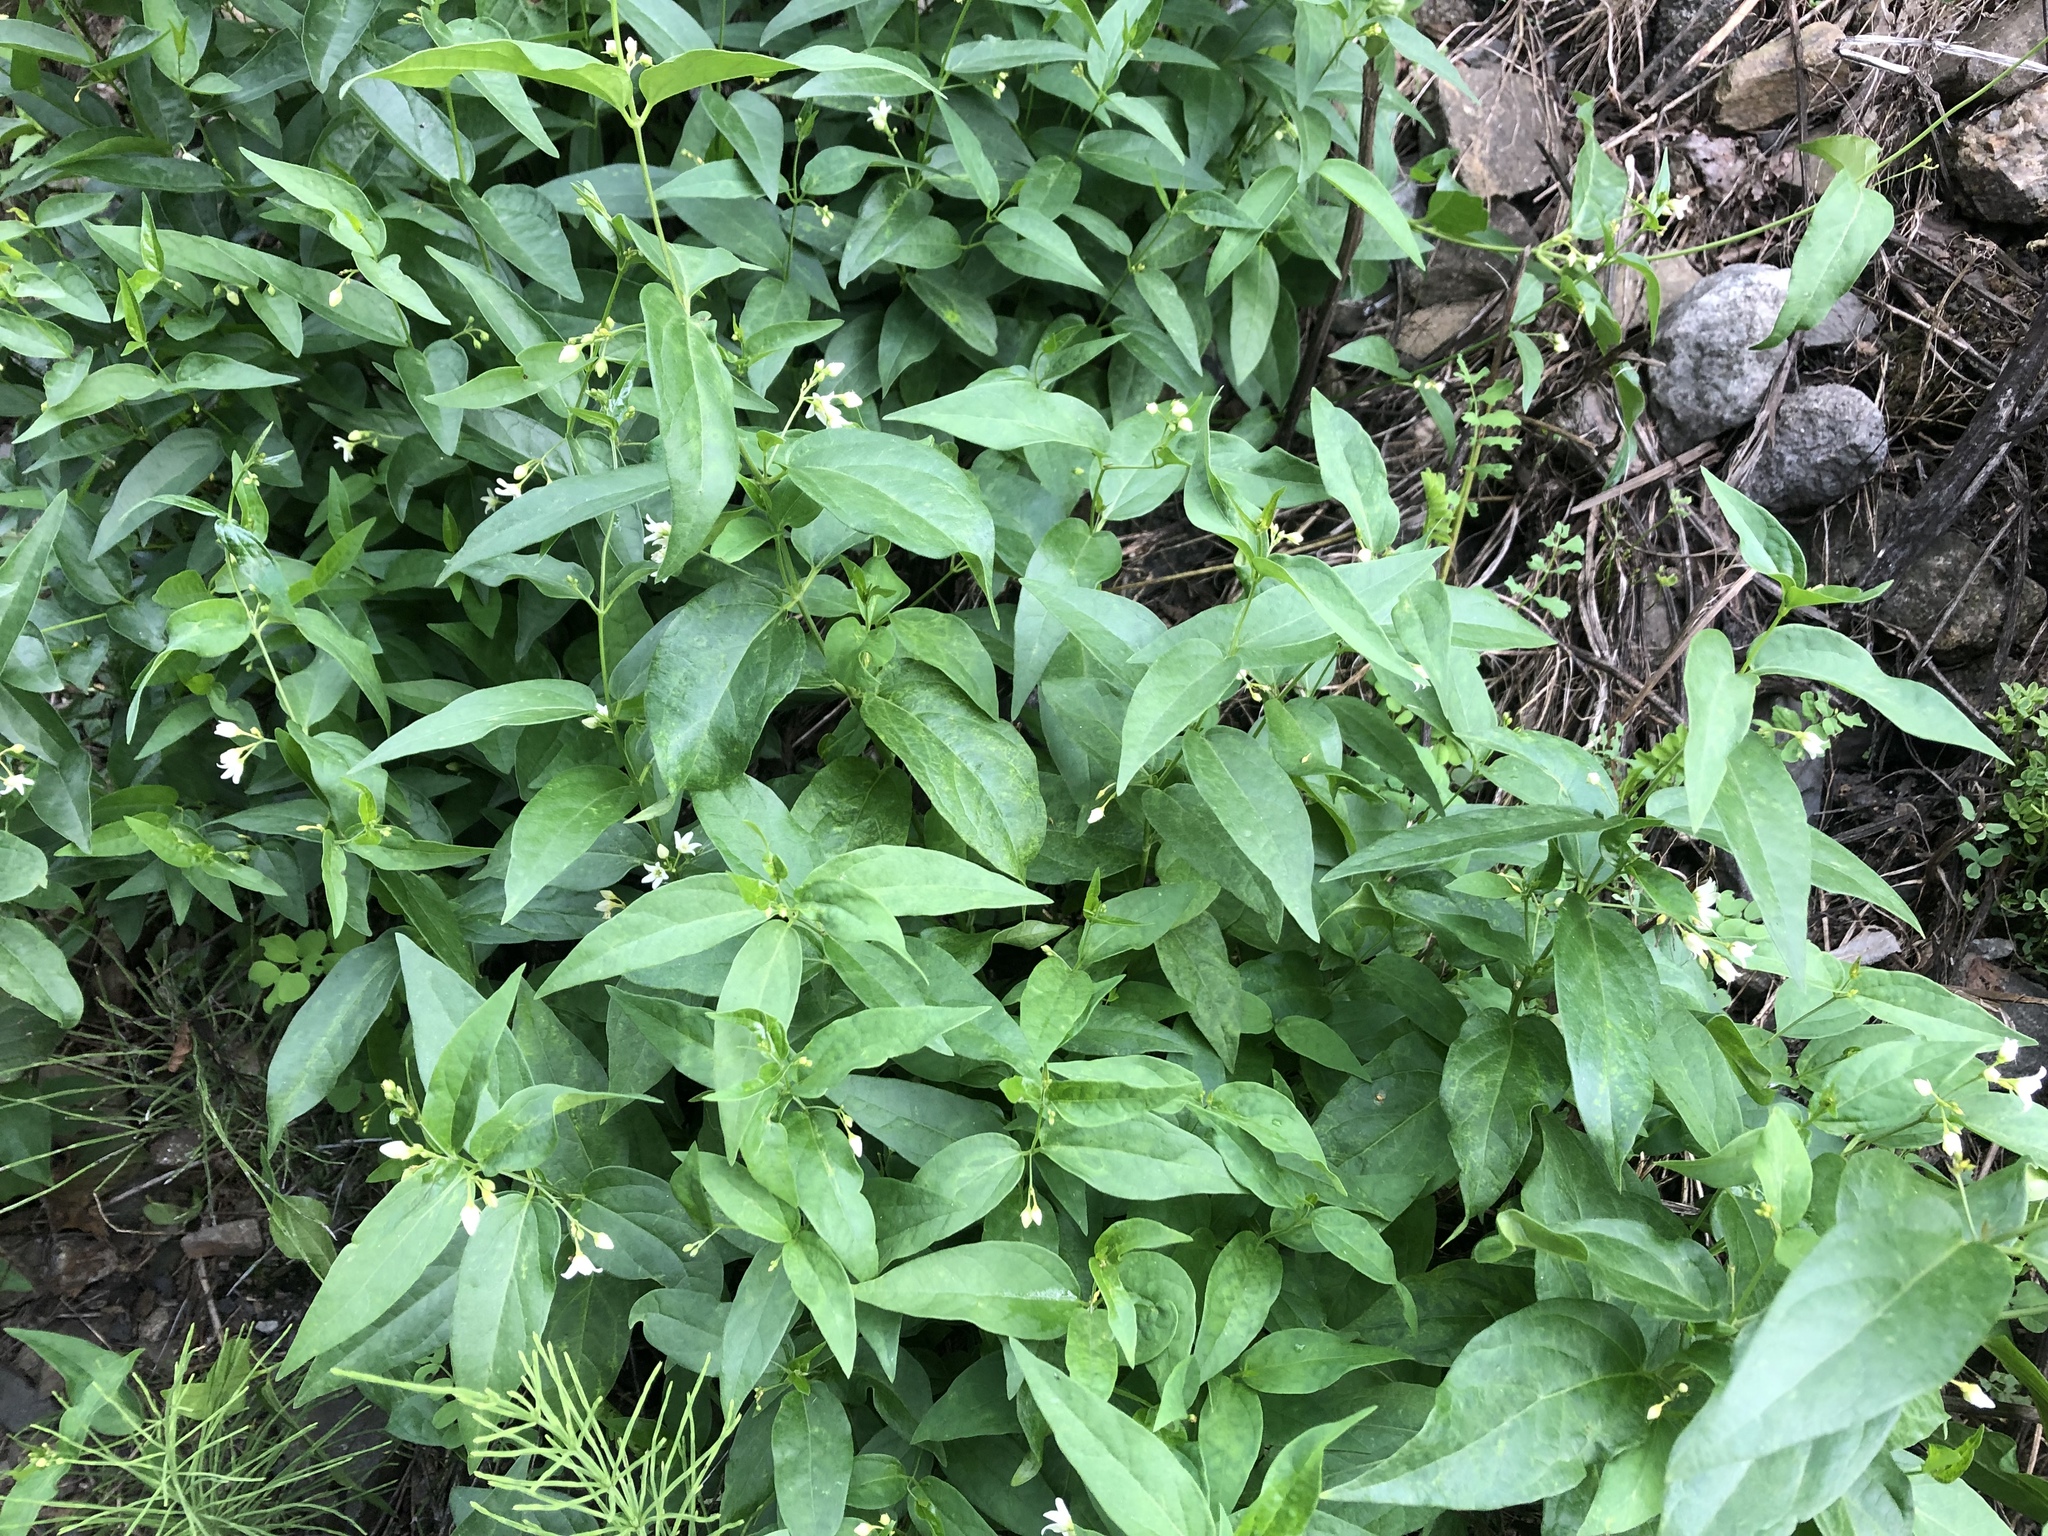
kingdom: Plantae
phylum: Tracheophyta
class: Magnoliopsida
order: Gentianales
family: Apocynaceae
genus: Vincetoxicum
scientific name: Vincetoxicum hirundinaria
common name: White swallowwort
